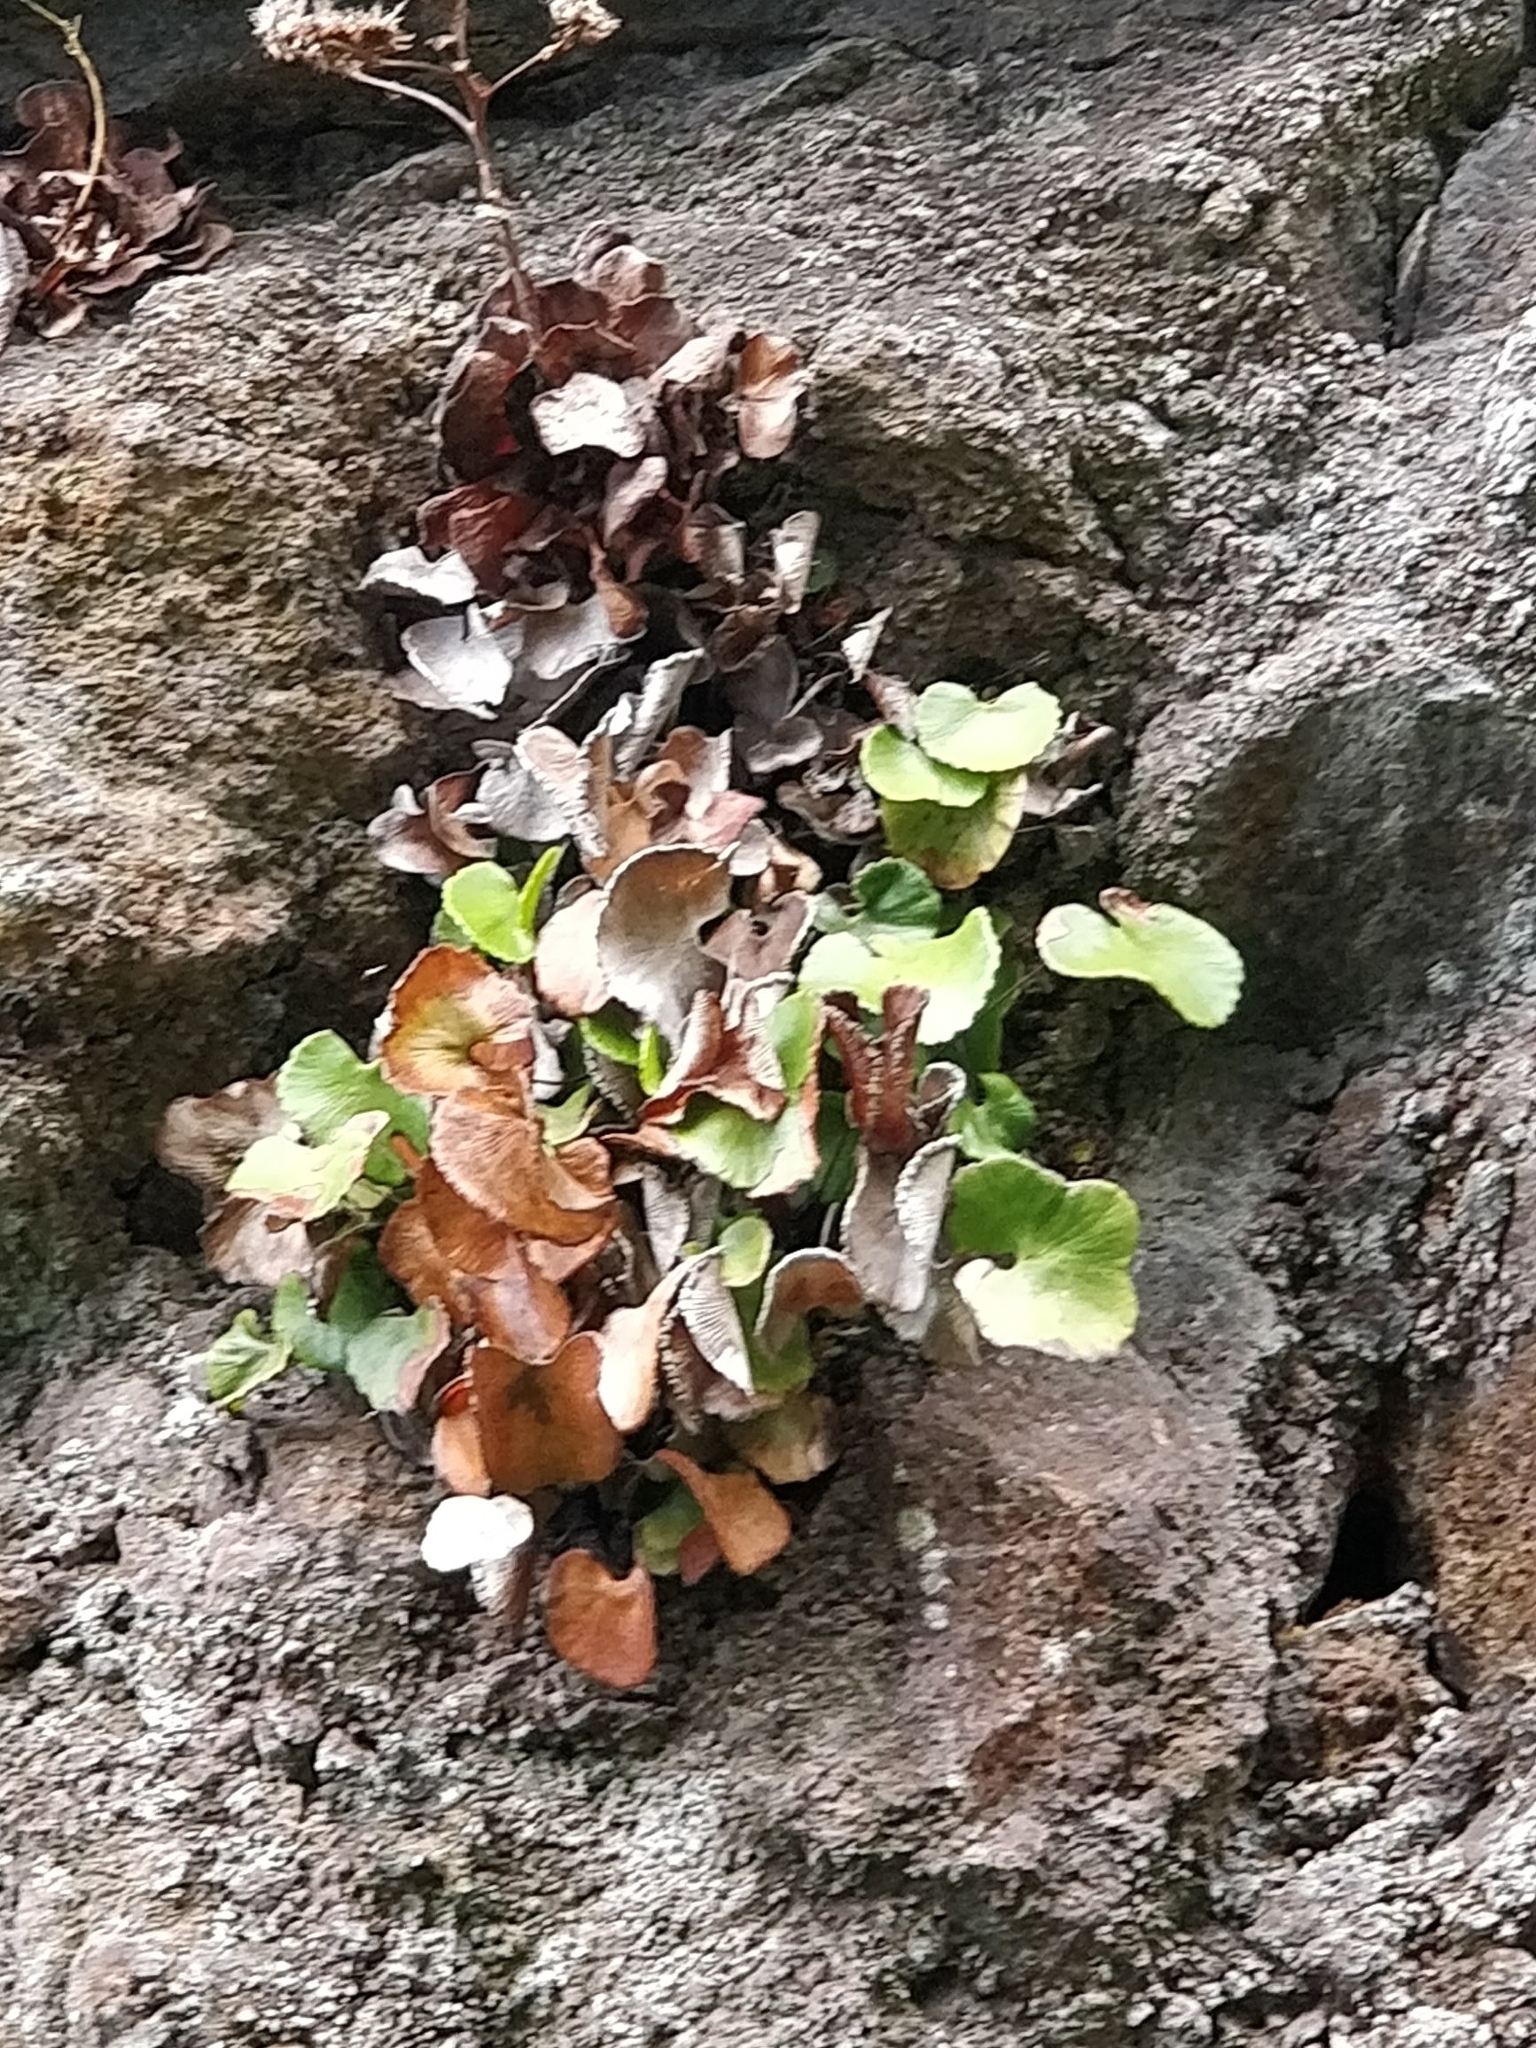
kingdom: Plantae
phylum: Tracheophyta
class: Polypodiopsida
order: Polypodiales
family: Pteridaceae
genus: Adiantum
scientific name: Adiantum reniforme
